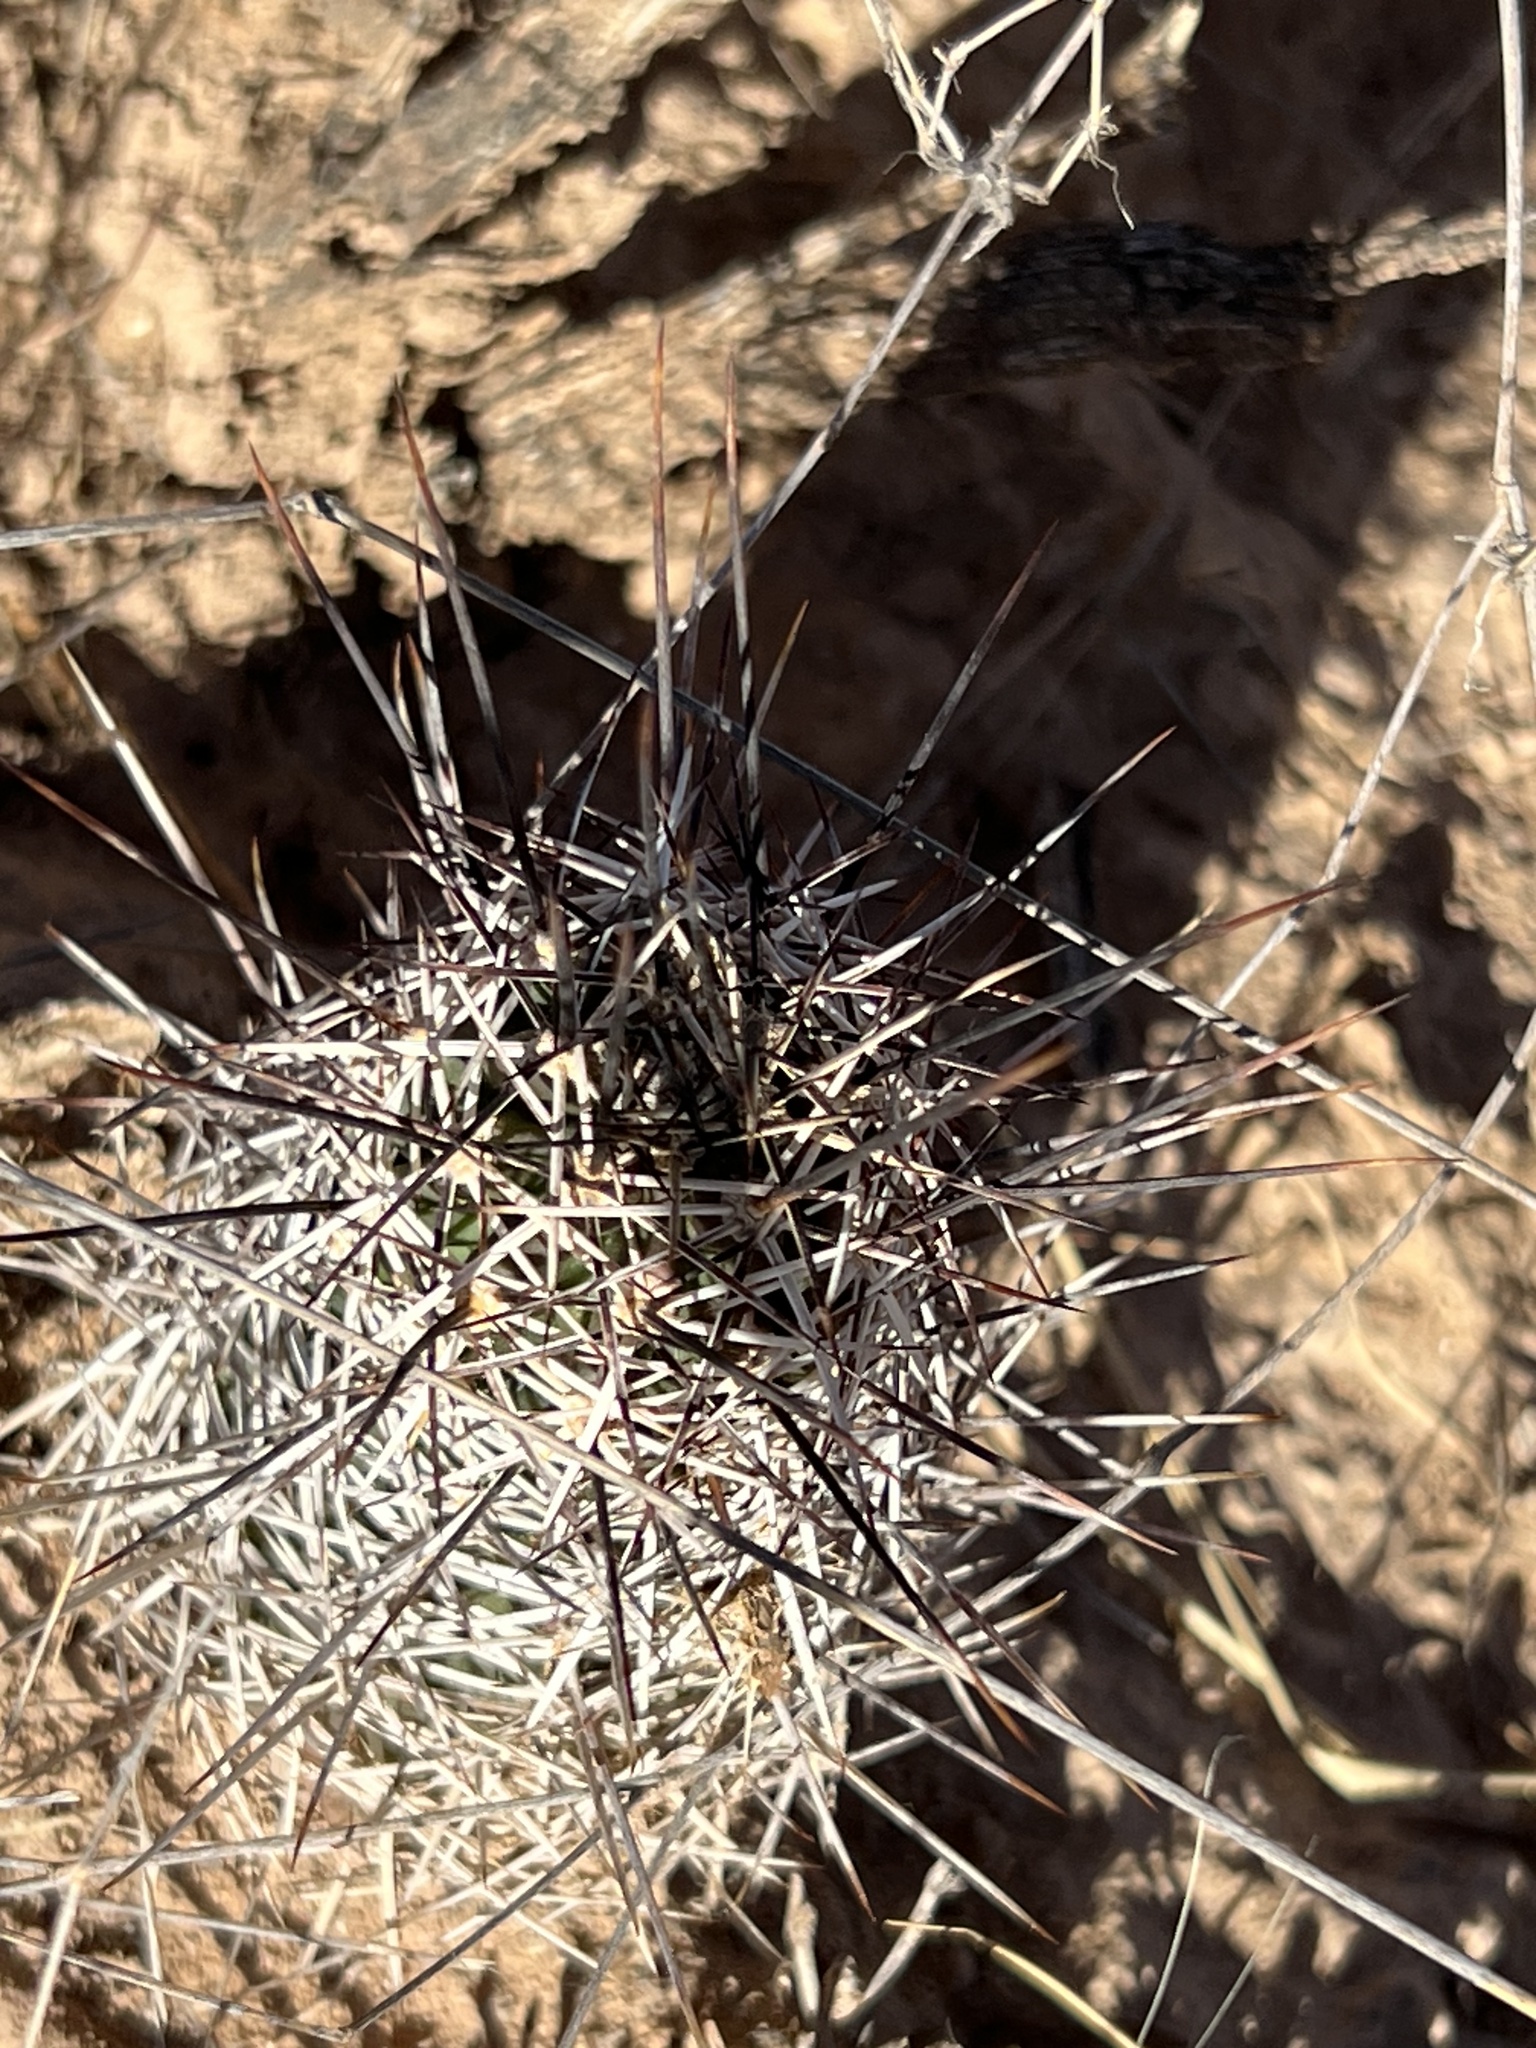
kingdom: Plantae
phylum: Tracheophyta
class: Magnoliopsida
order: Caryophyllales
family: Cactaceae
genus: Echinocereus
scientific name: Echinocereus fendleri
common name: Fendler's hedgehog cactus
